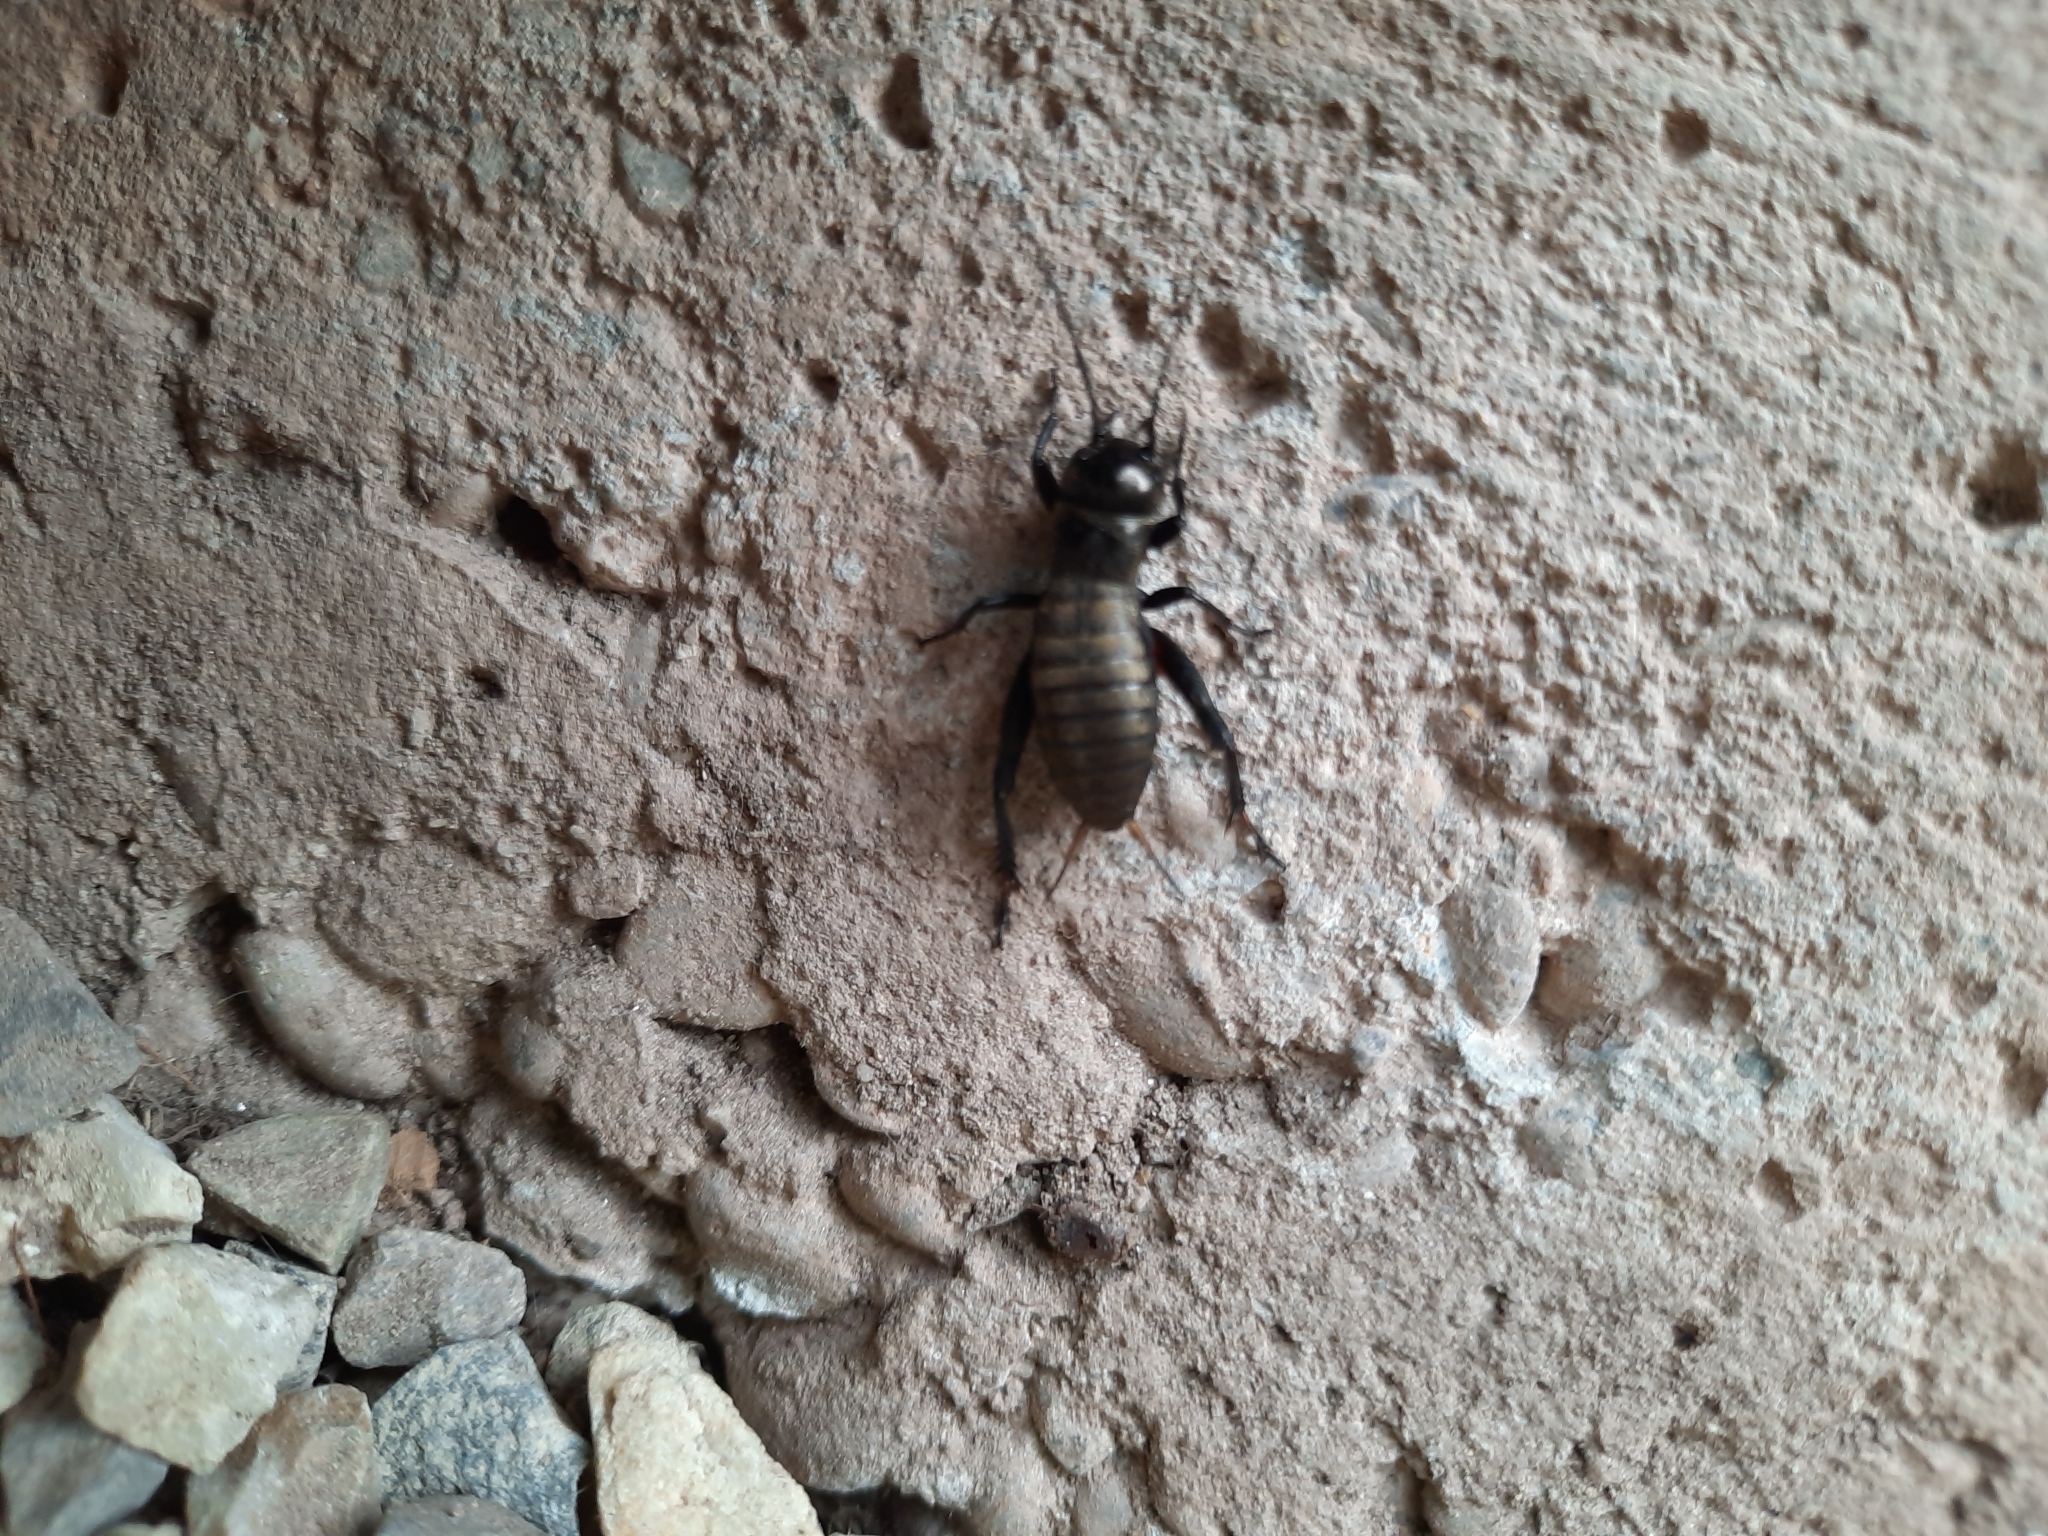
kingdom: Animalia
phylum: Arthropoda
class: Insecta
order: Orthoptera
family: Gryllidae
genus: Gryllus
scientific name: Gryllus campestris
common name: Field cricket
